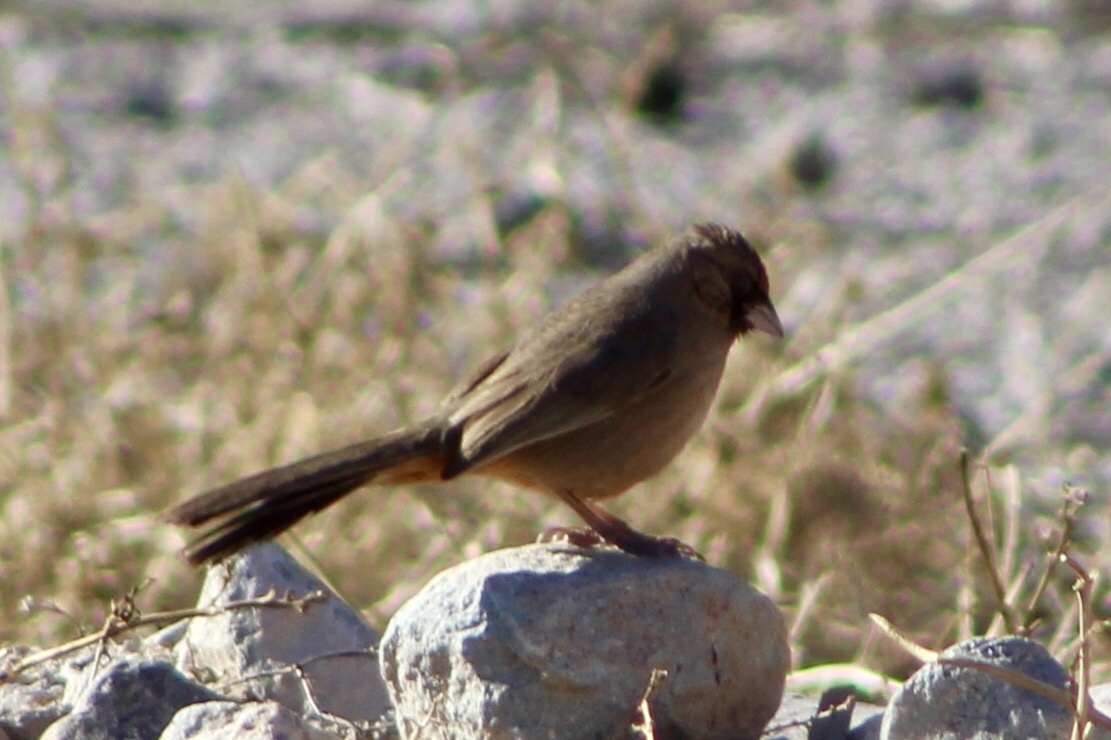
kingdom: Animalia
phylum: Chordata
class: Aves
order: Passeriformes
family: Passerellidae
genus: Melozone
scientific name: Melozone aberti
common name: Abert's towhee
